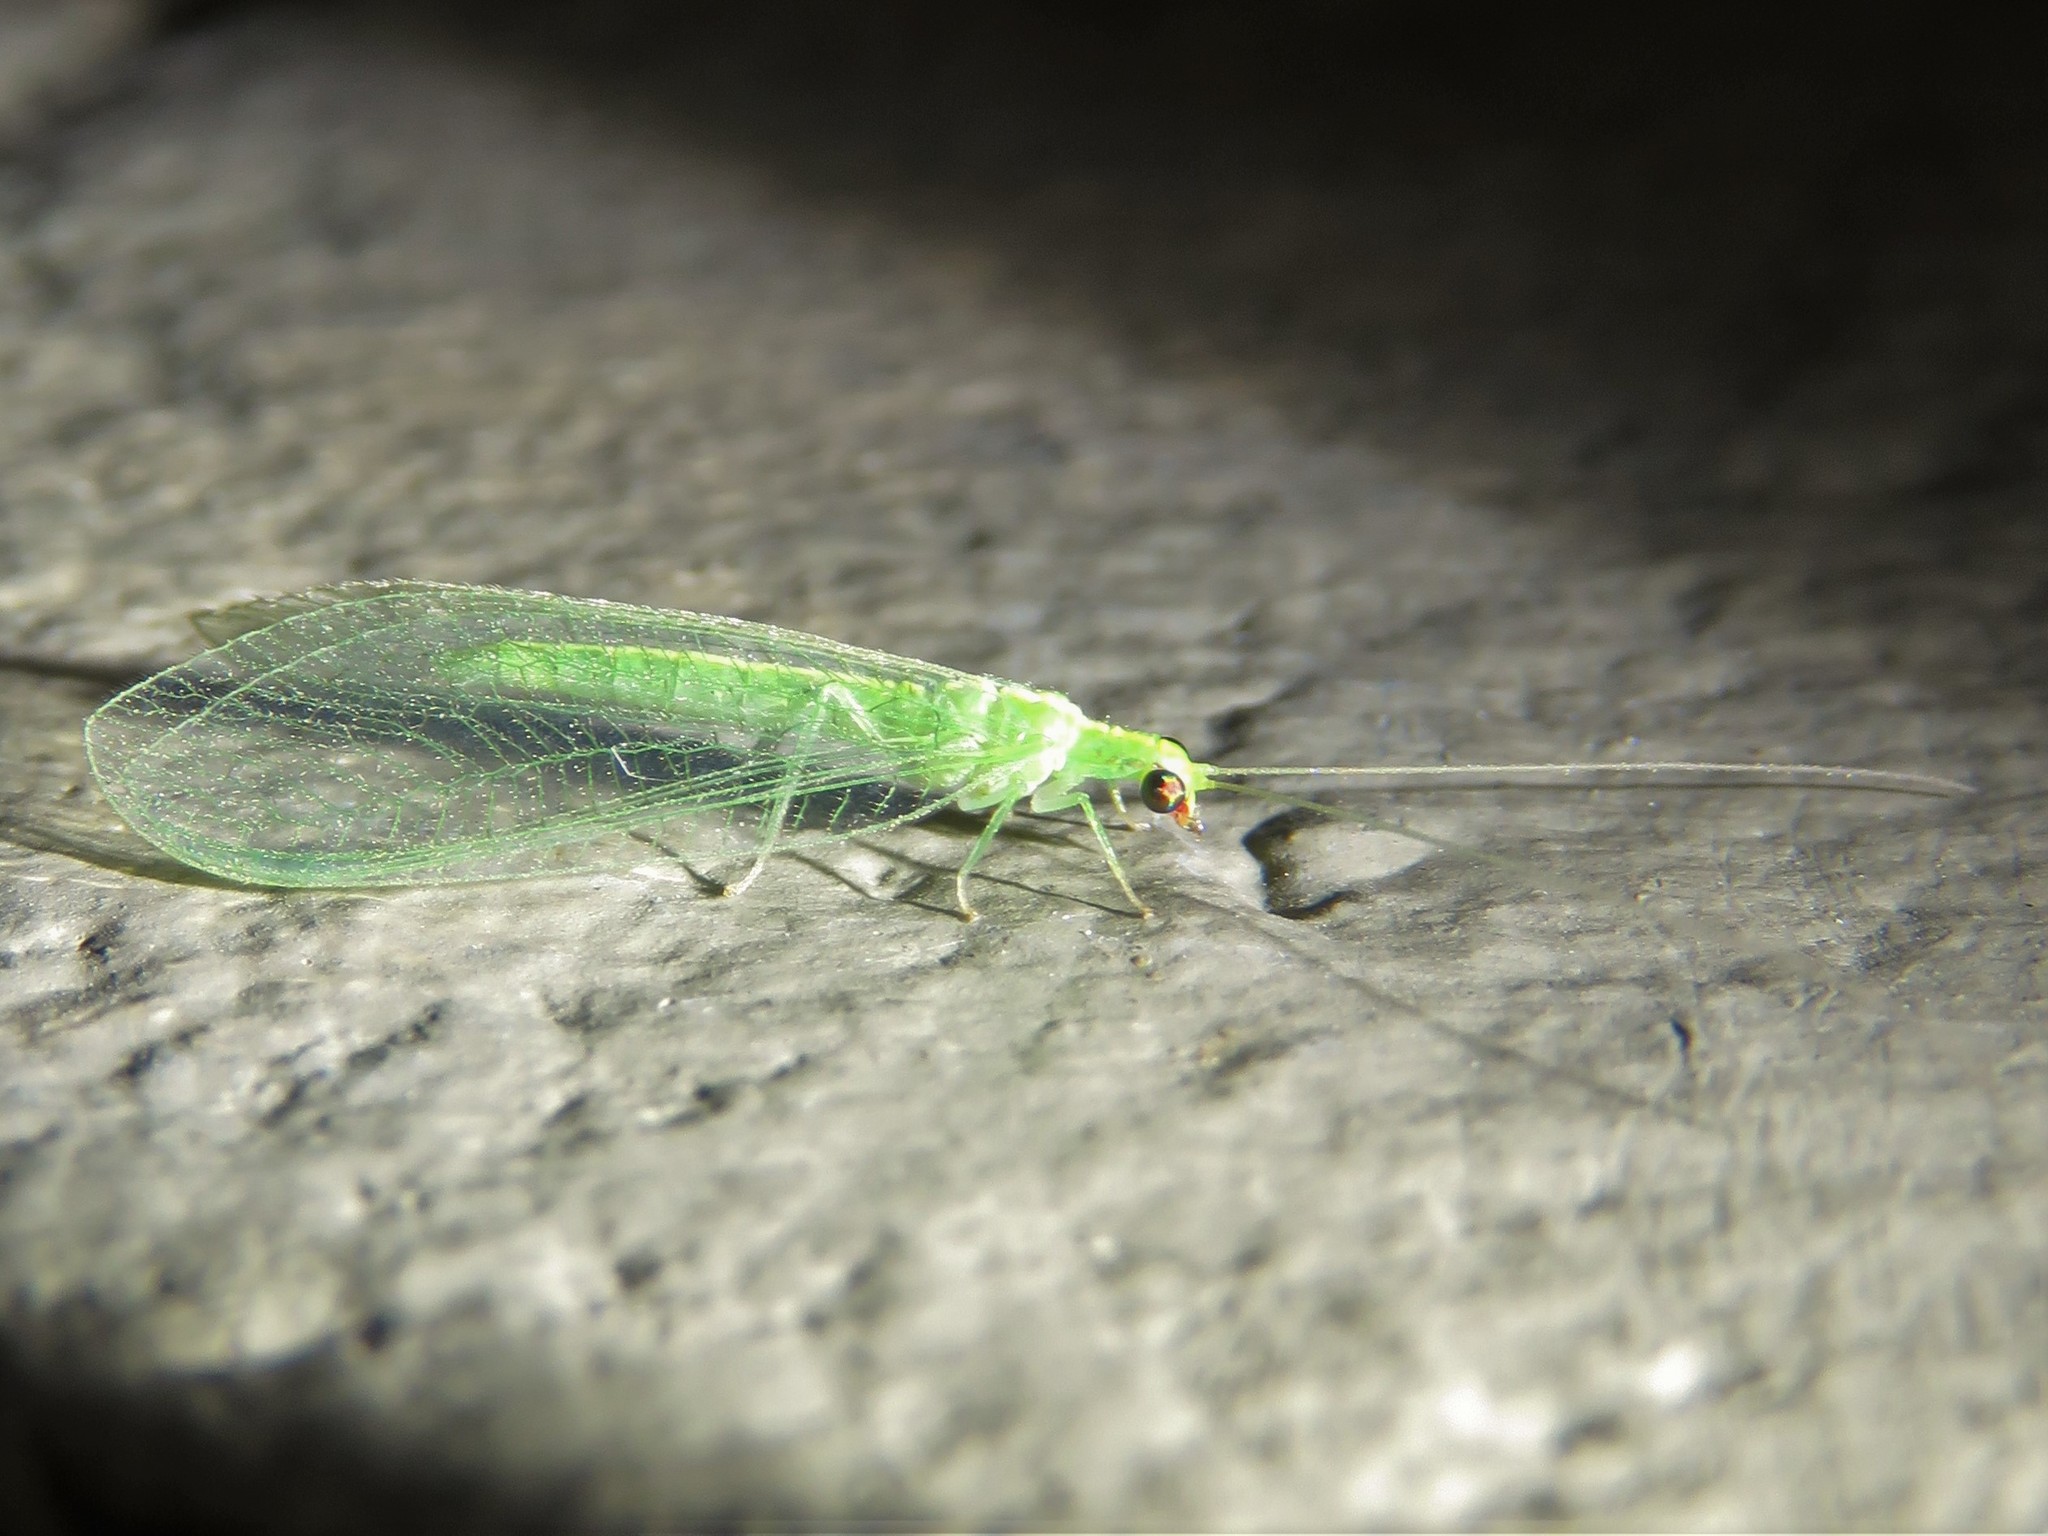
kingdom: Animalia
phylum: Arthropoda
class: Insecta
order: Neuroptera
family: Chrysopidae
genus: Chrysoperla
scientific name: Chrysoperla rufilabris
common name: Red-lipped green lacewing
